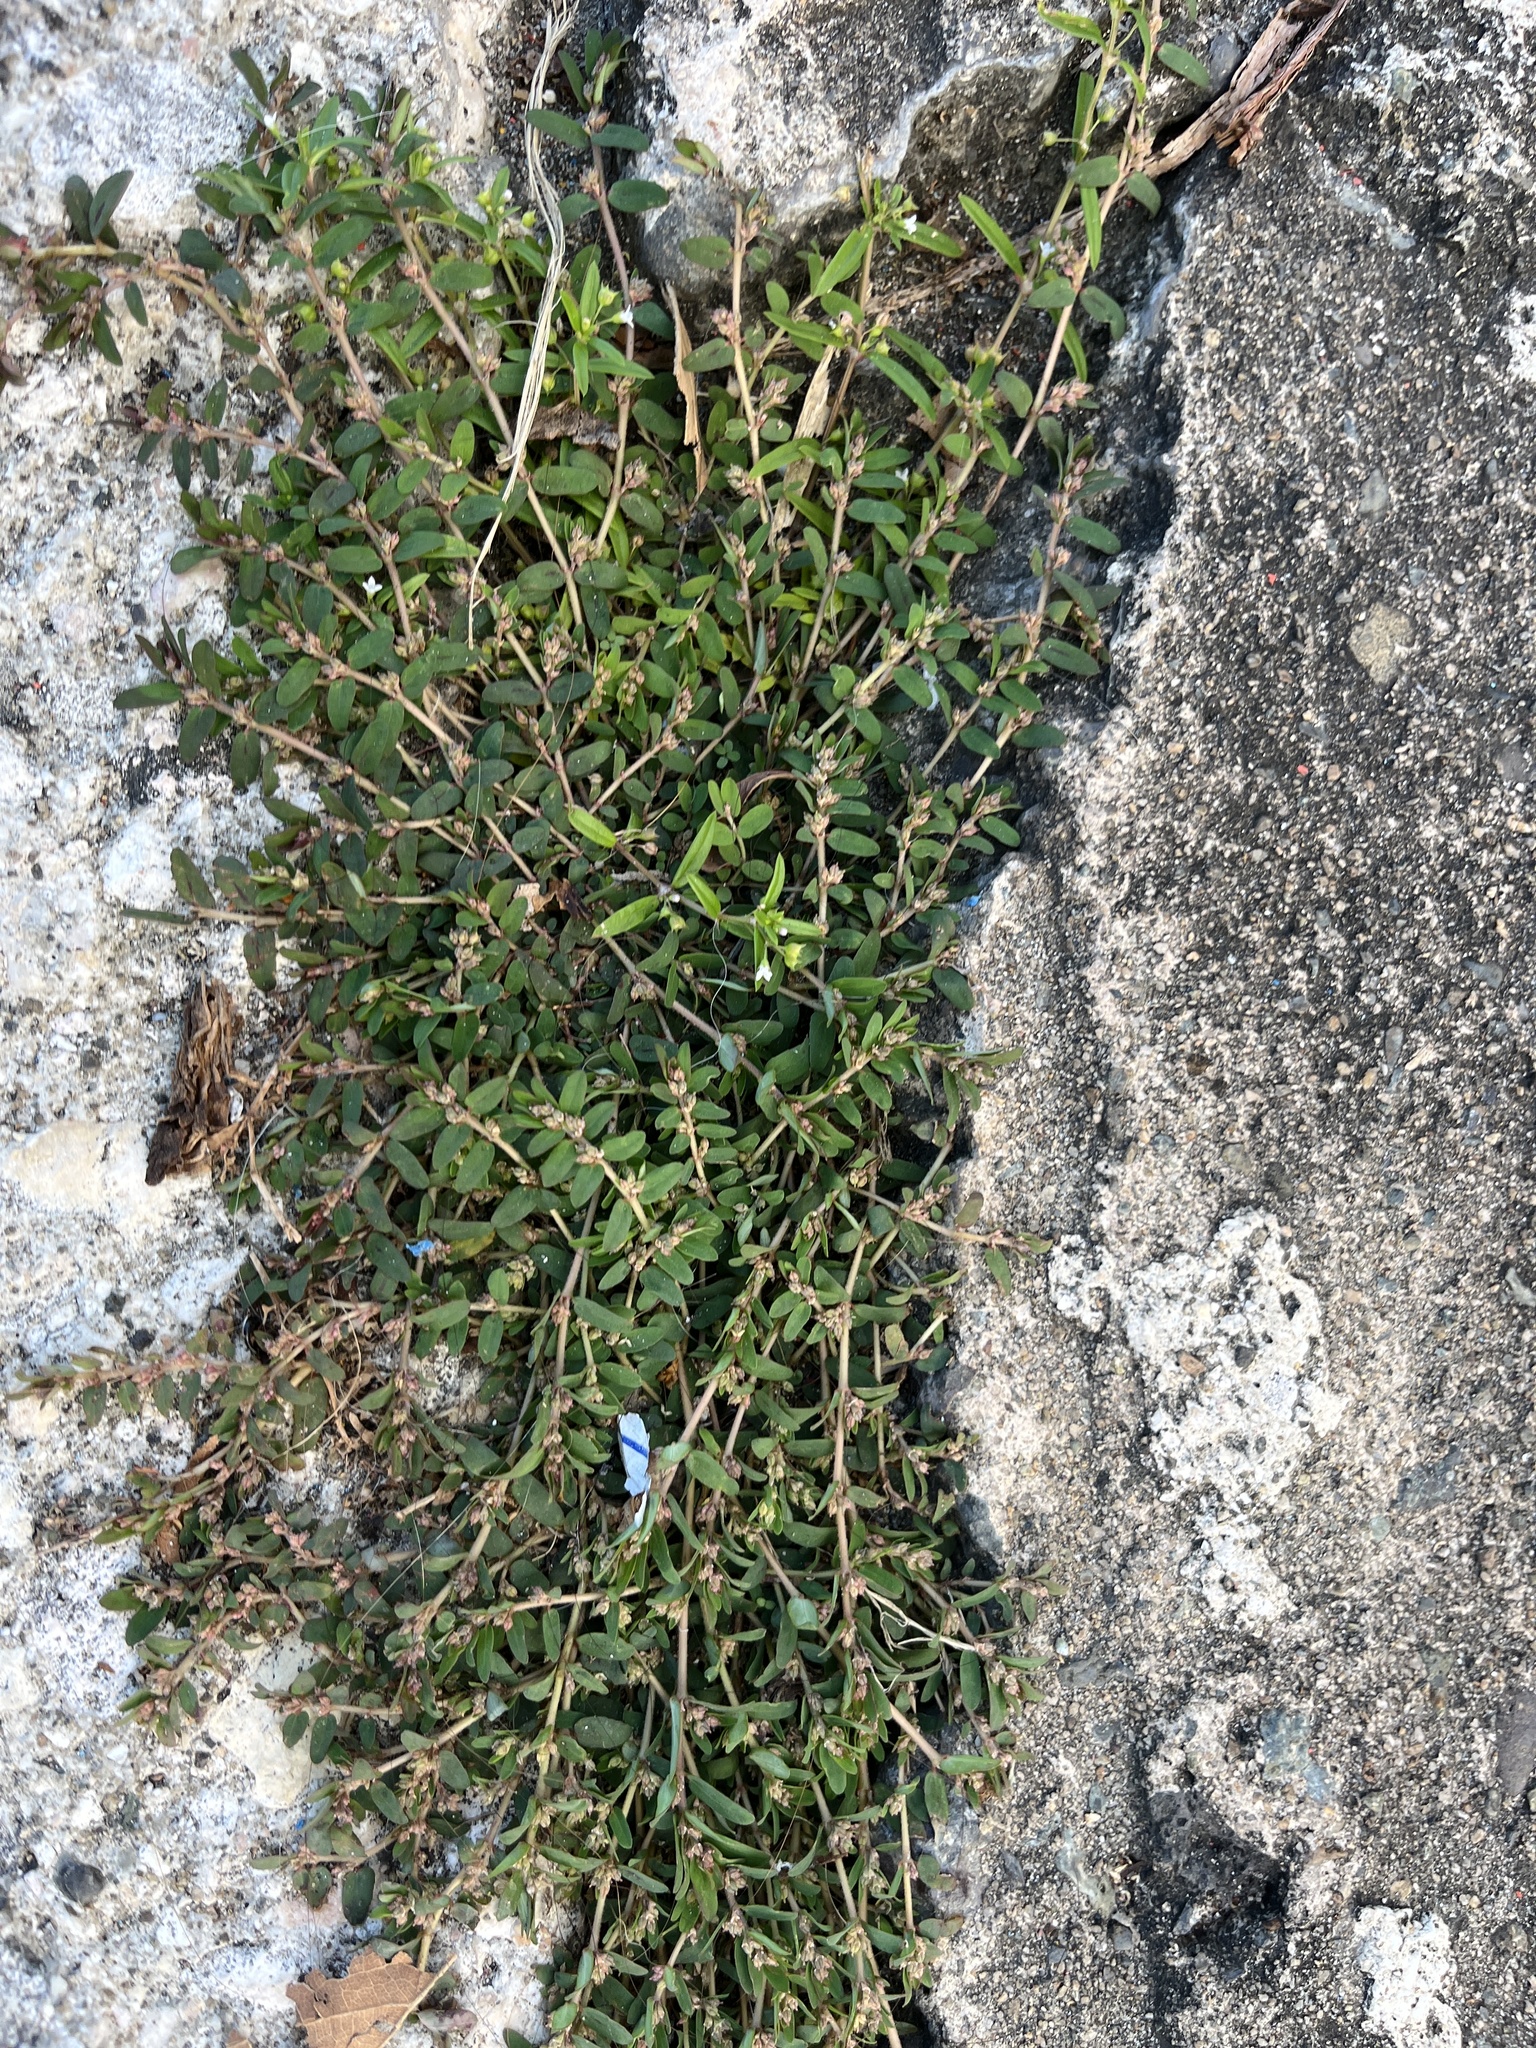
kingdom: Plantae
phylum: Tracheophyta
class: Magnoliopsida
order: Malpighiales
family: Euphorbiaceae
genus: Euphorbia
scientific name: Euphorbia thymifolia
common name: Gulf sandmat
